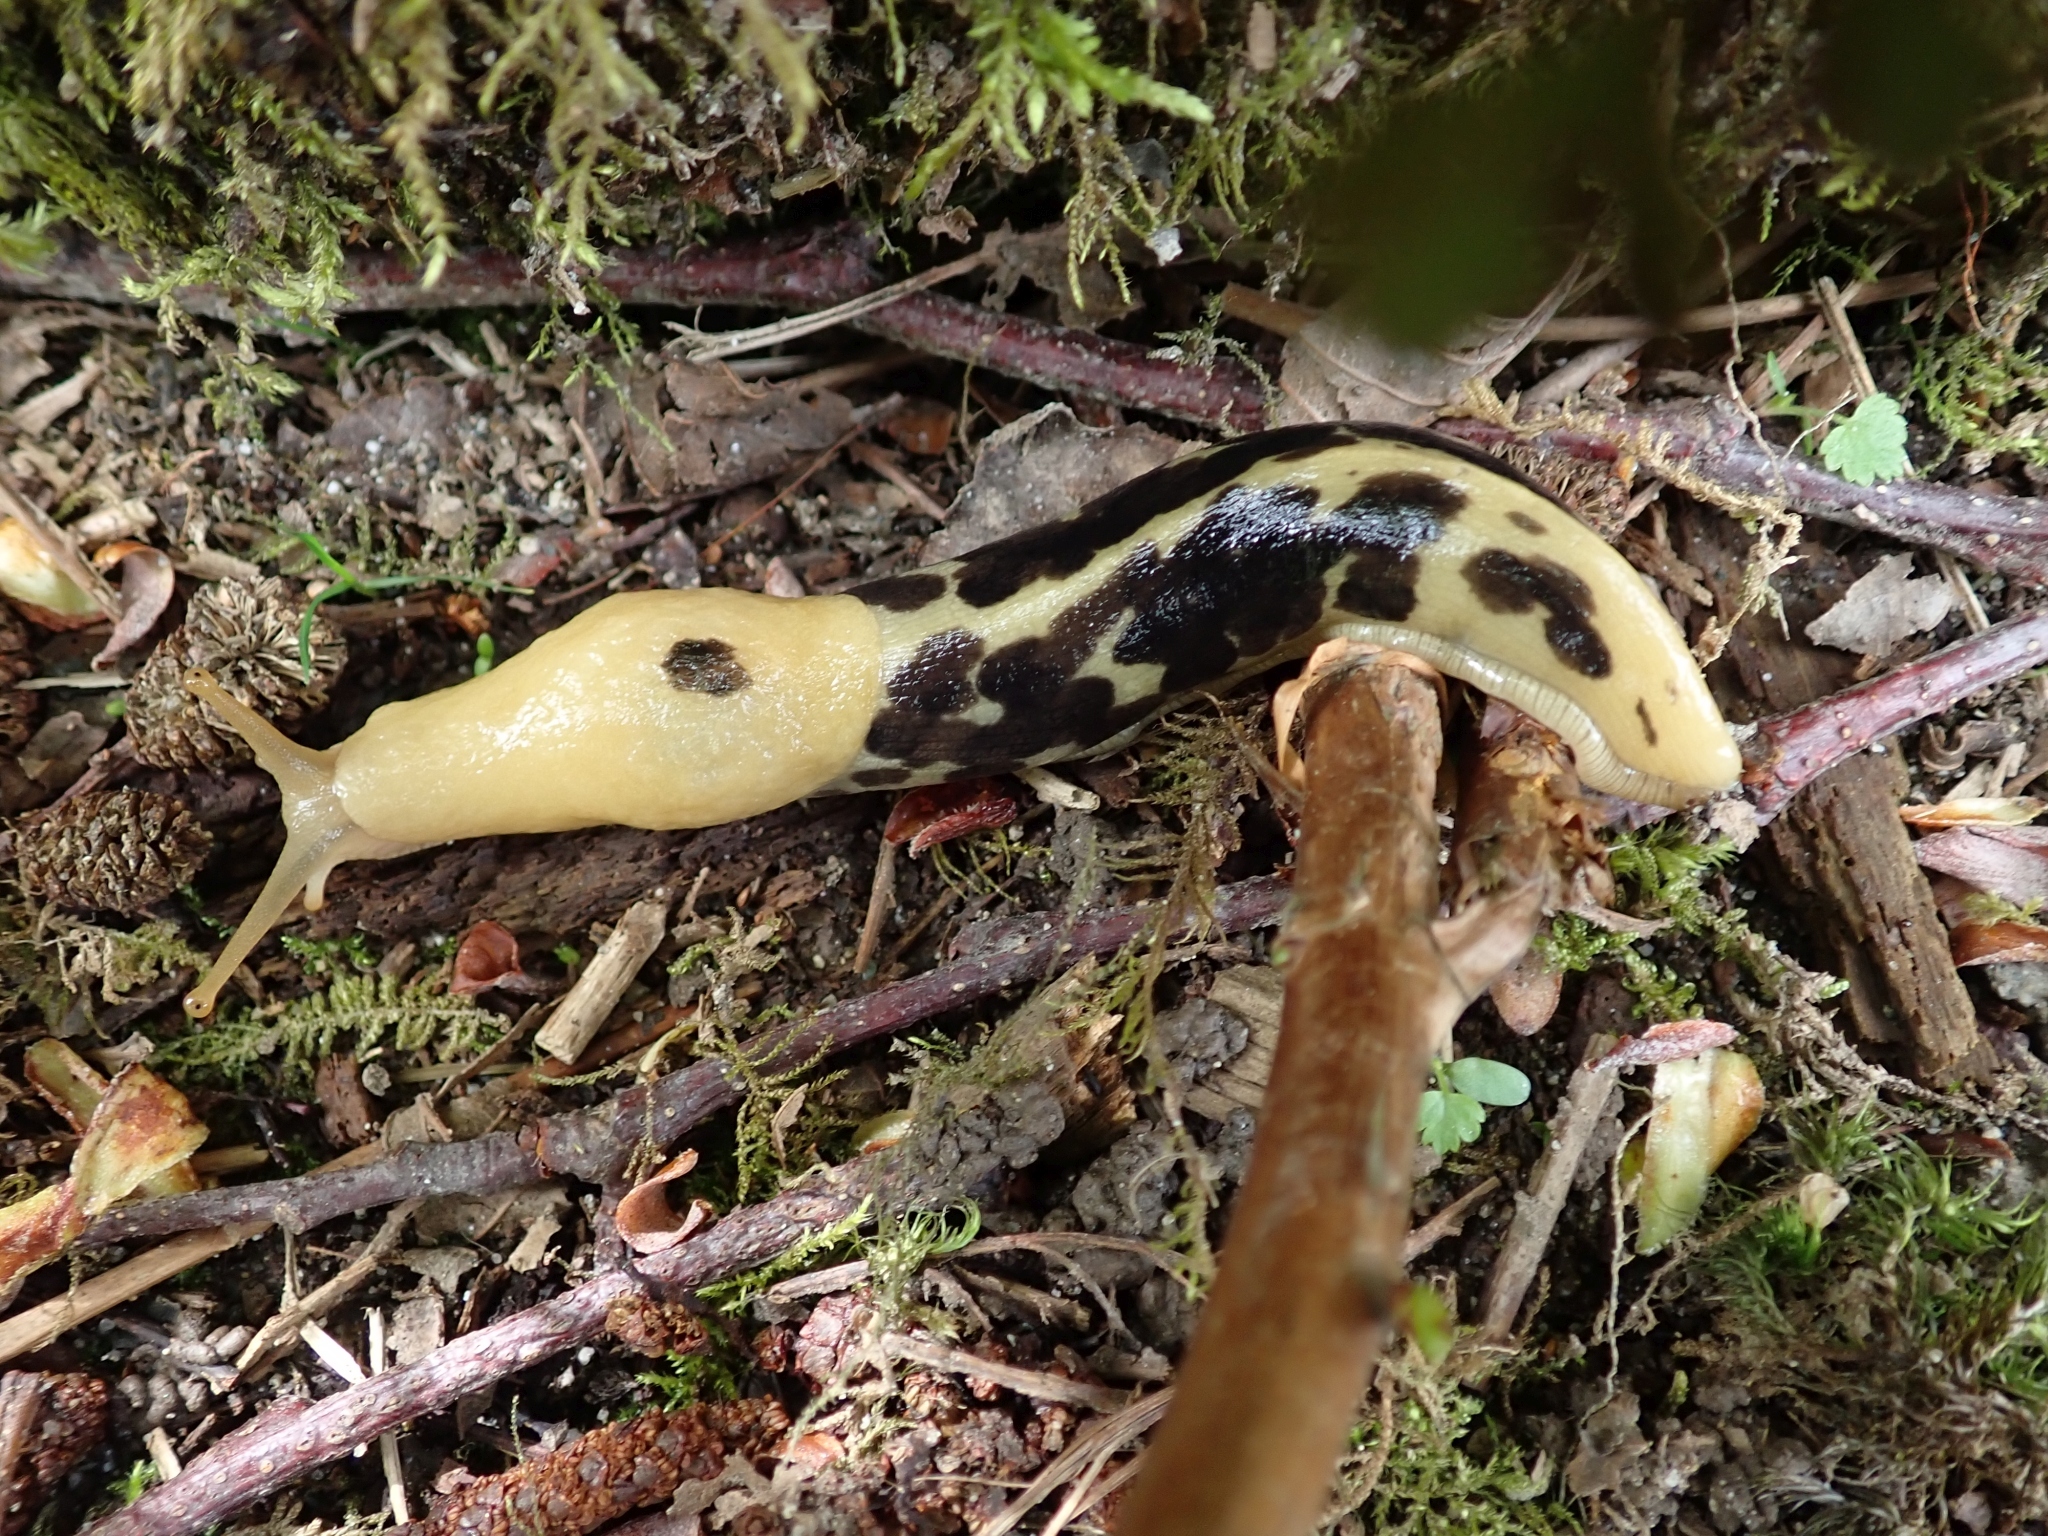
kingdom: Animalia
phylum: Mollusca
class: Gastropoda
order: Stylommatophora
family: Ariolimacidae
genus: Ariolimax
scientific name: Ariolimax columbianus
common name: Pacific banana slug
